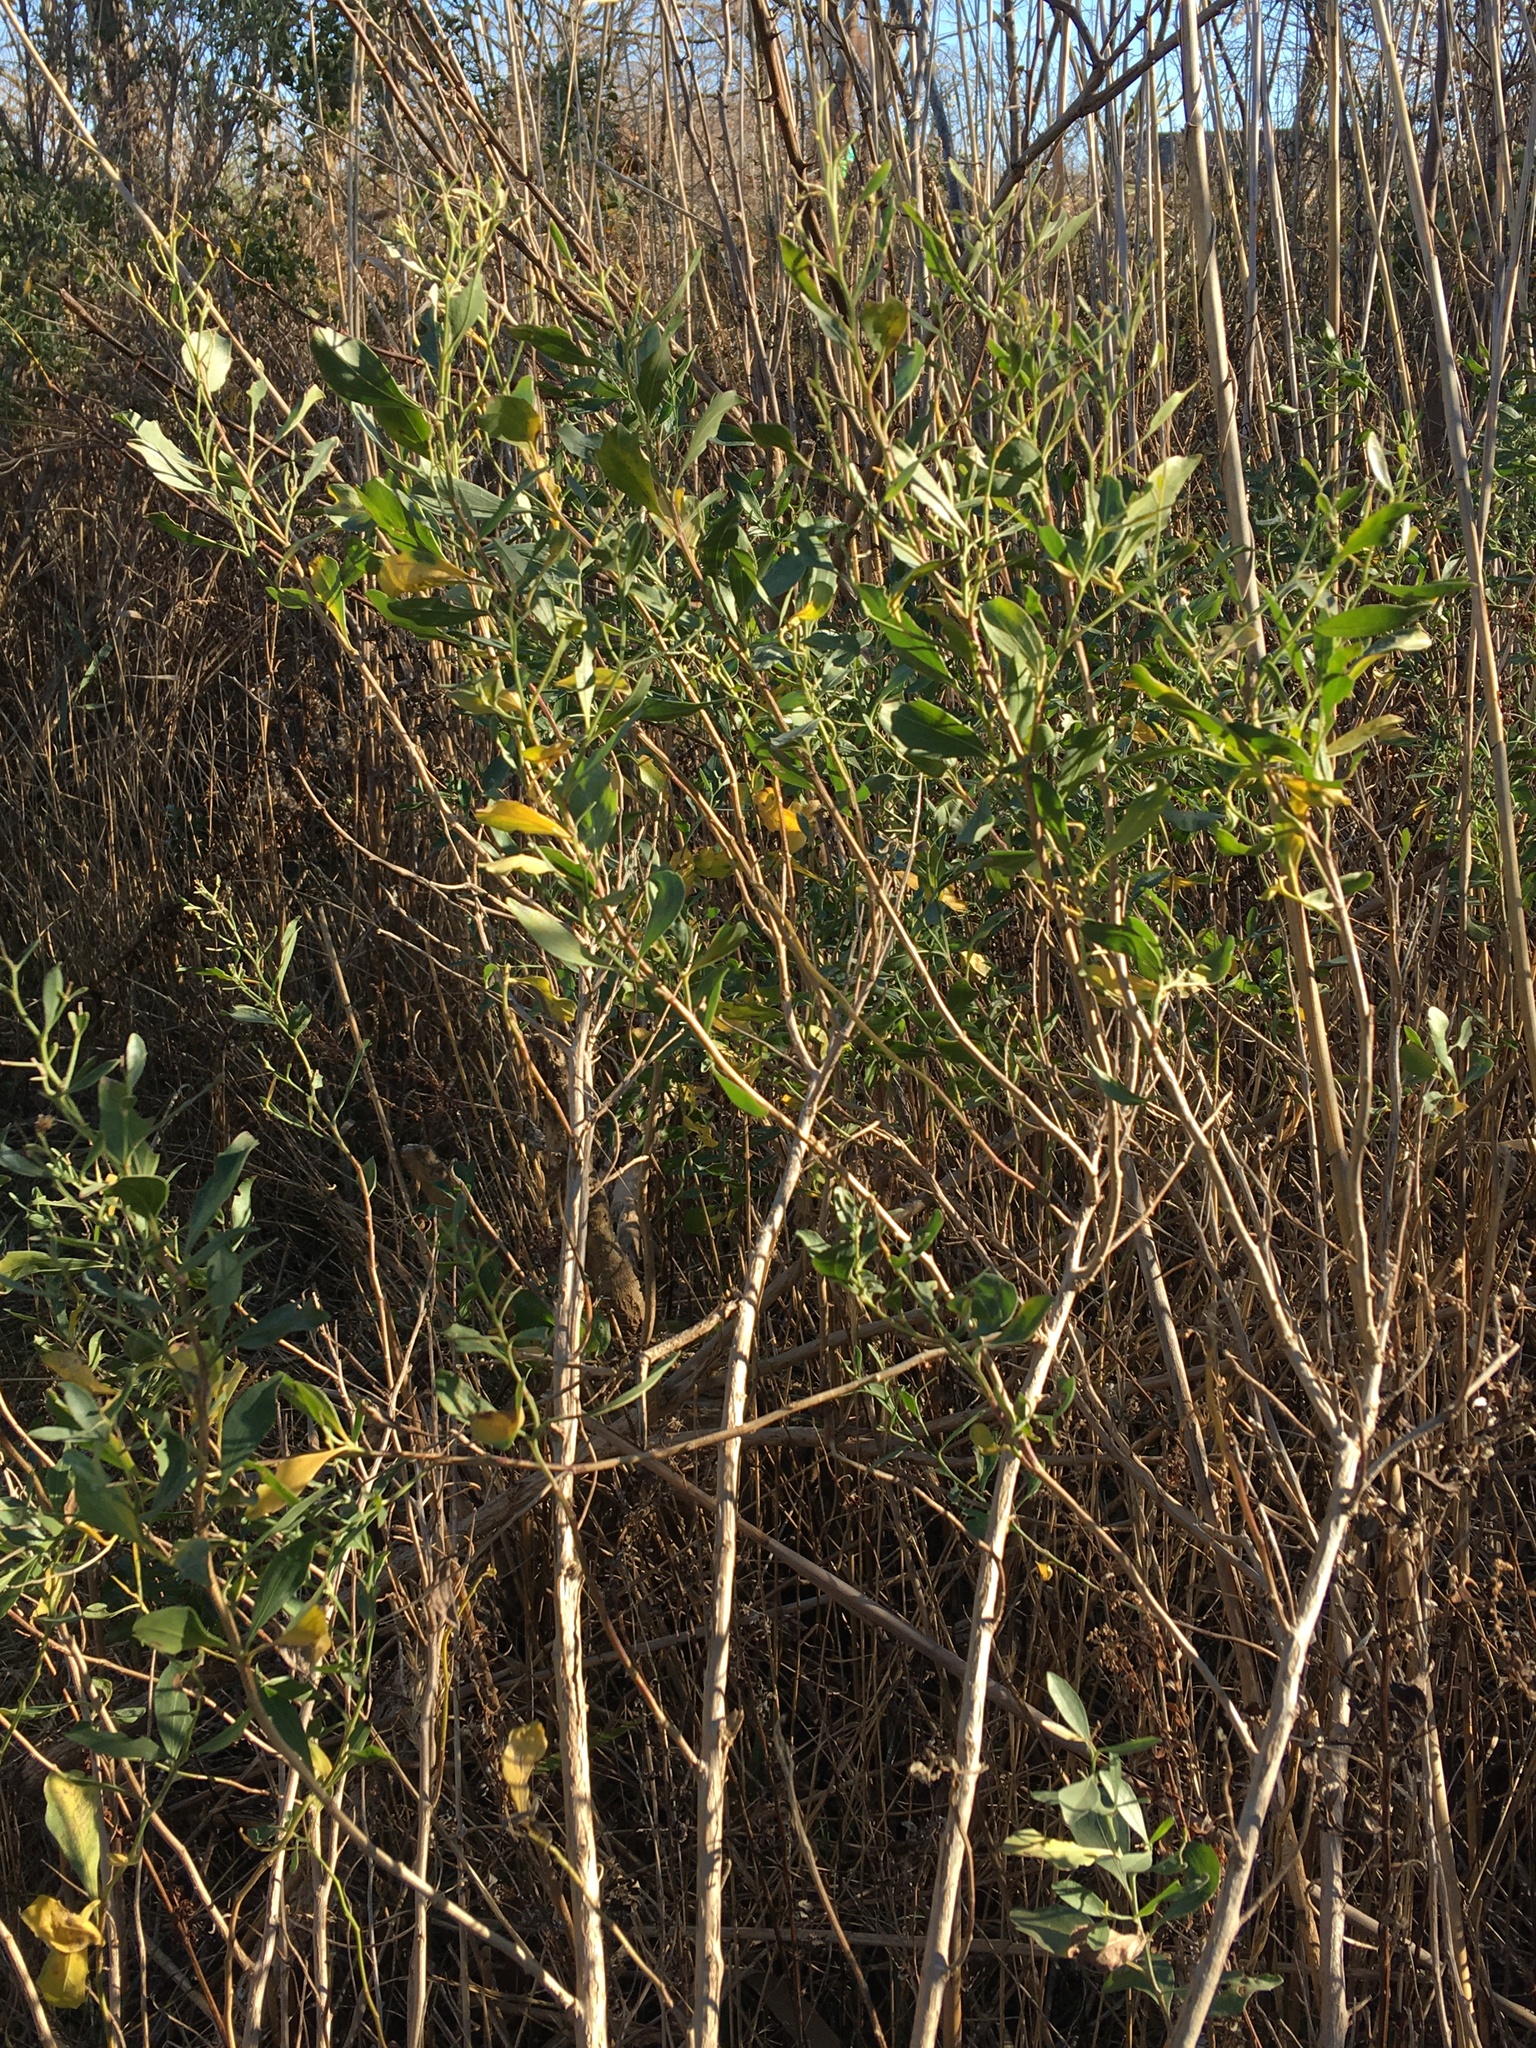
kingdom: Plantae
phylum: Tracheophyta
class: Magnoliopsida
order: Asterales
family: Asteraceae
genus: Baccharis
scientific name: Baccharis halimifolia
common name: Eastern baccharis
